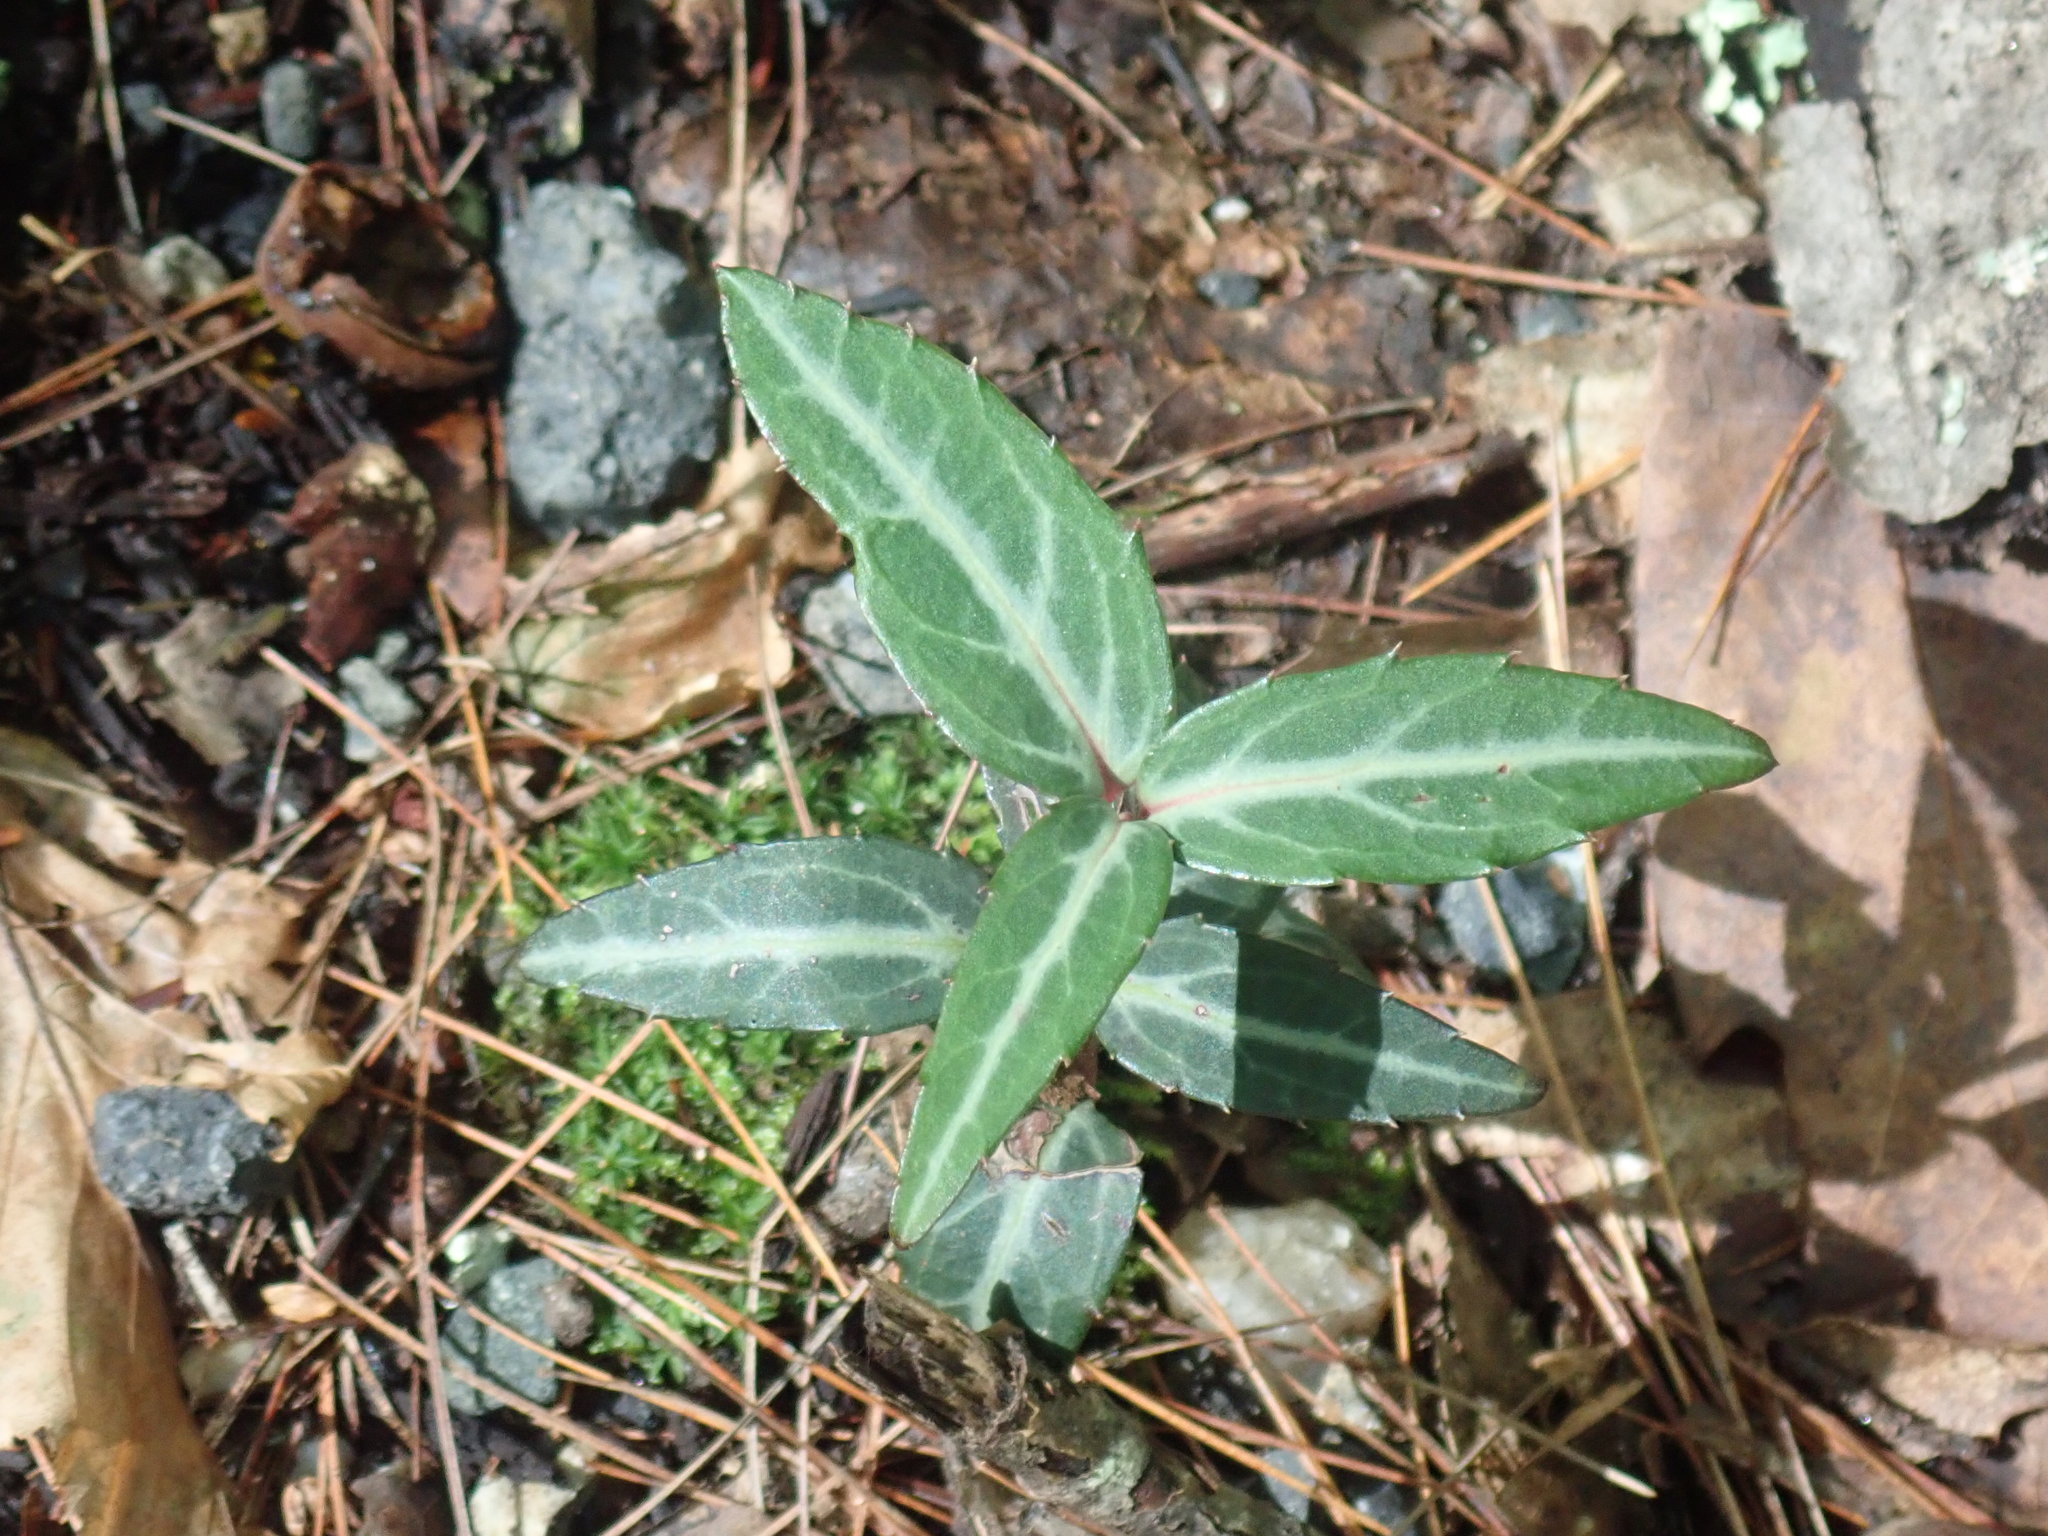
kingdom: Plantae
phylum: Tracheophyta
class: Magnoliopsida
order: Ericales
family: Ericaceae
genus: Chimaphila
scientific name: Chimaphila maculata
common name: Spotted pipsissewa
